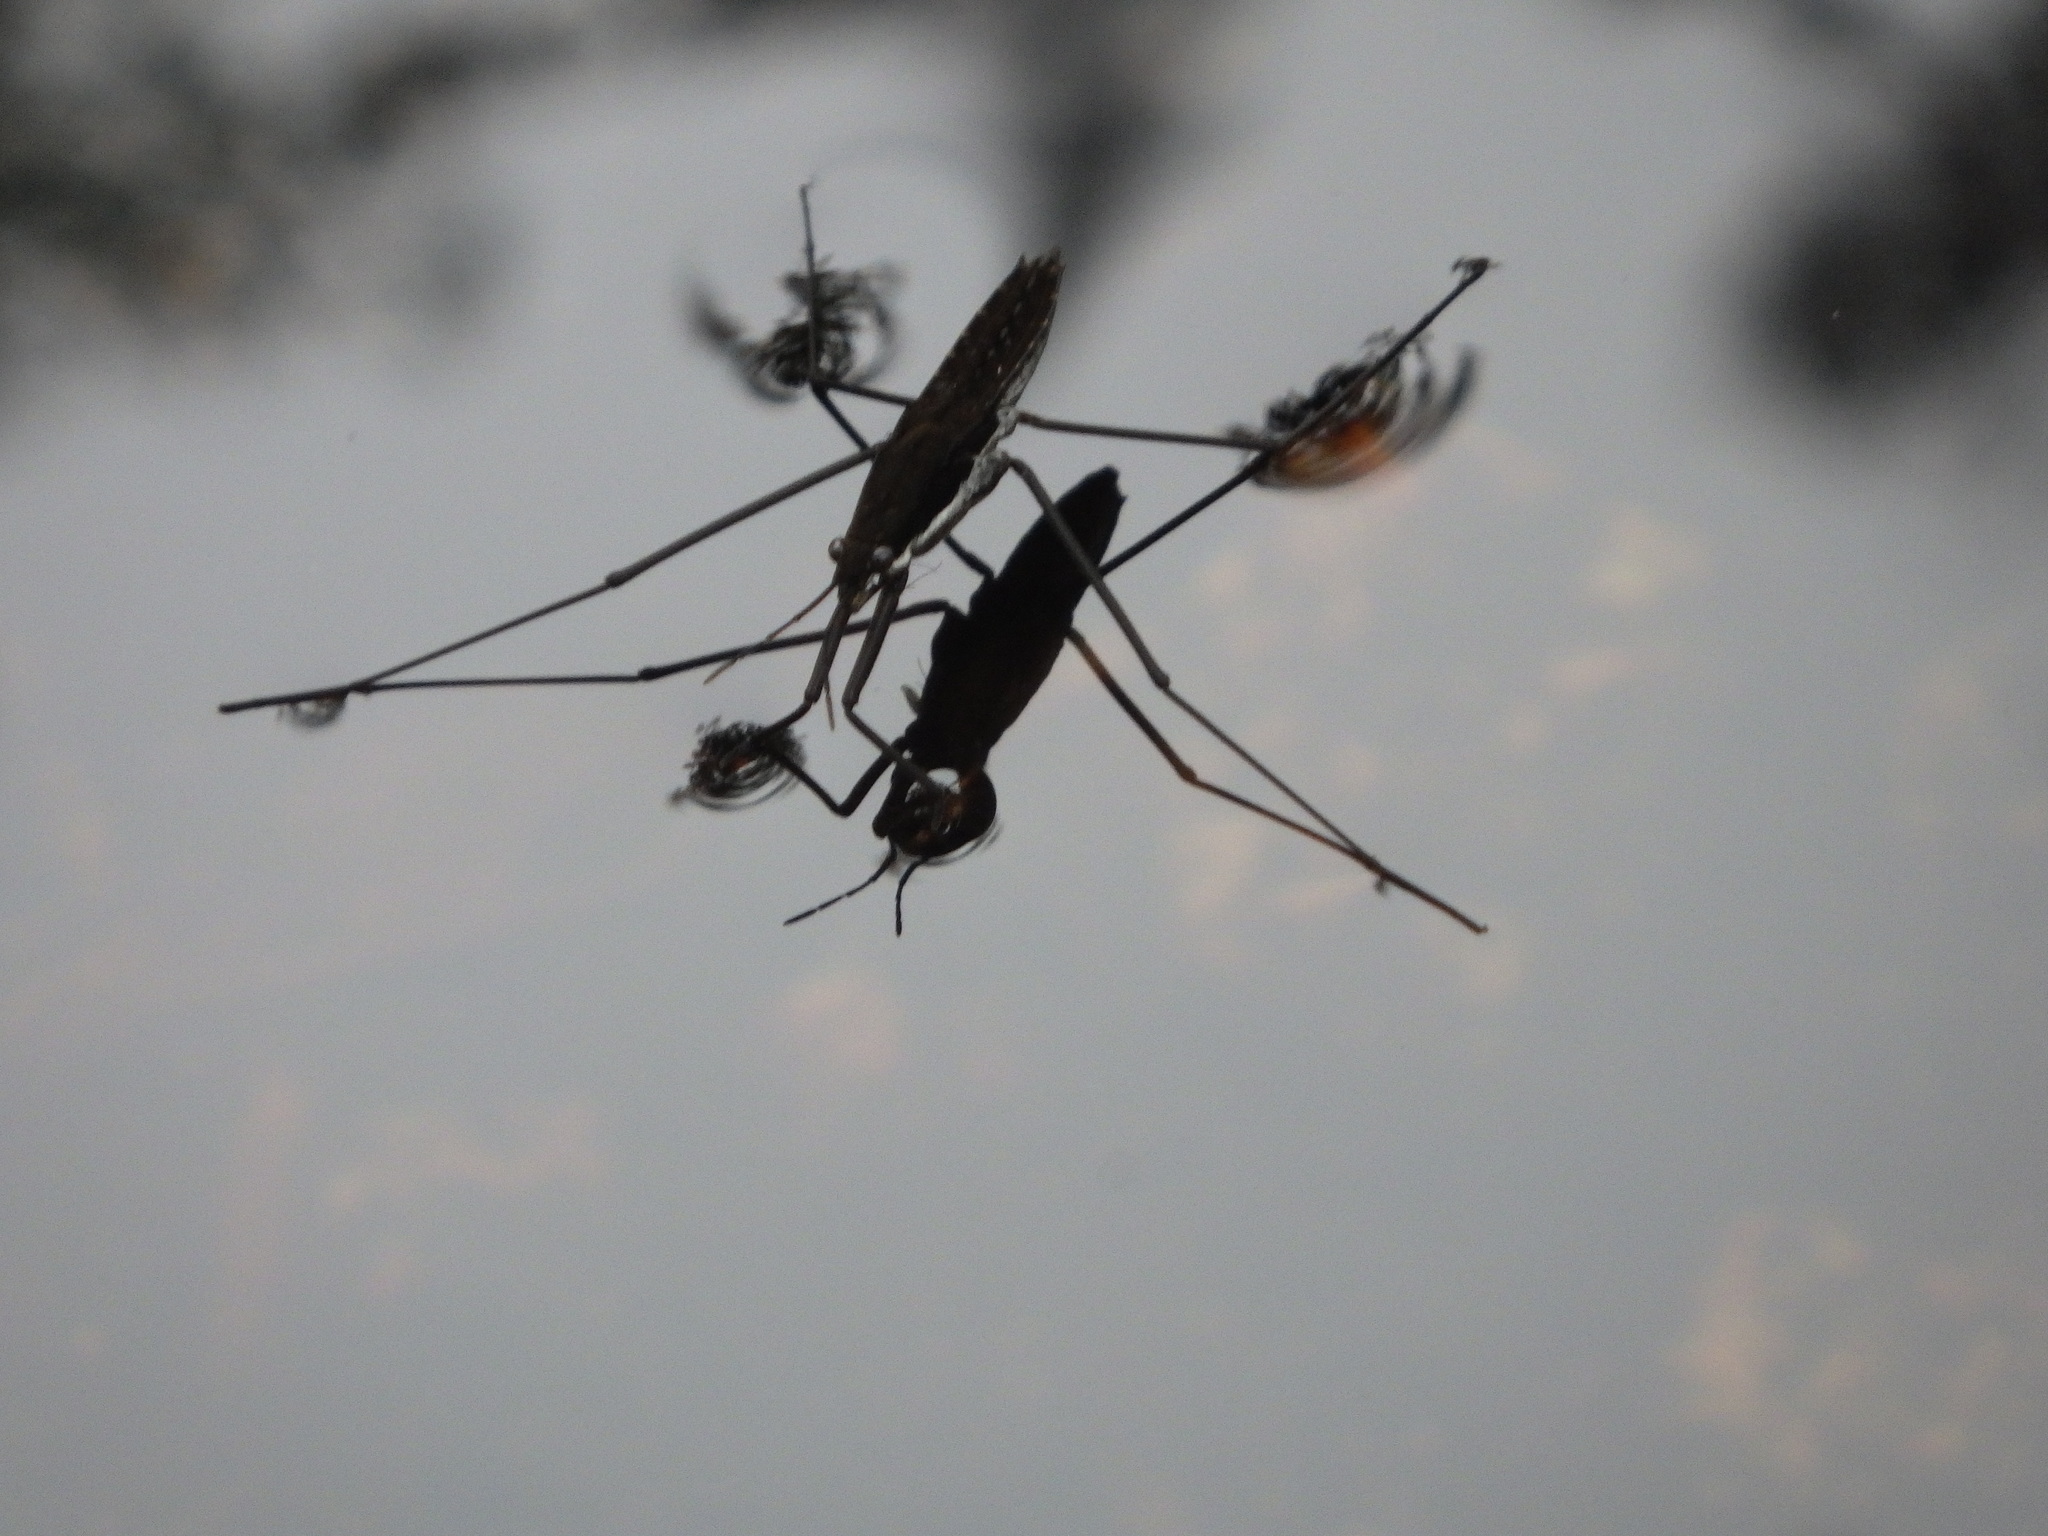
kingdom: Animalia
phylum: Arthropoda
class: Insecta
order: Hemiptera
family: Gerridae
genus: Aquarius
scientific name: Aquarius remigis
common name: Common water strider
